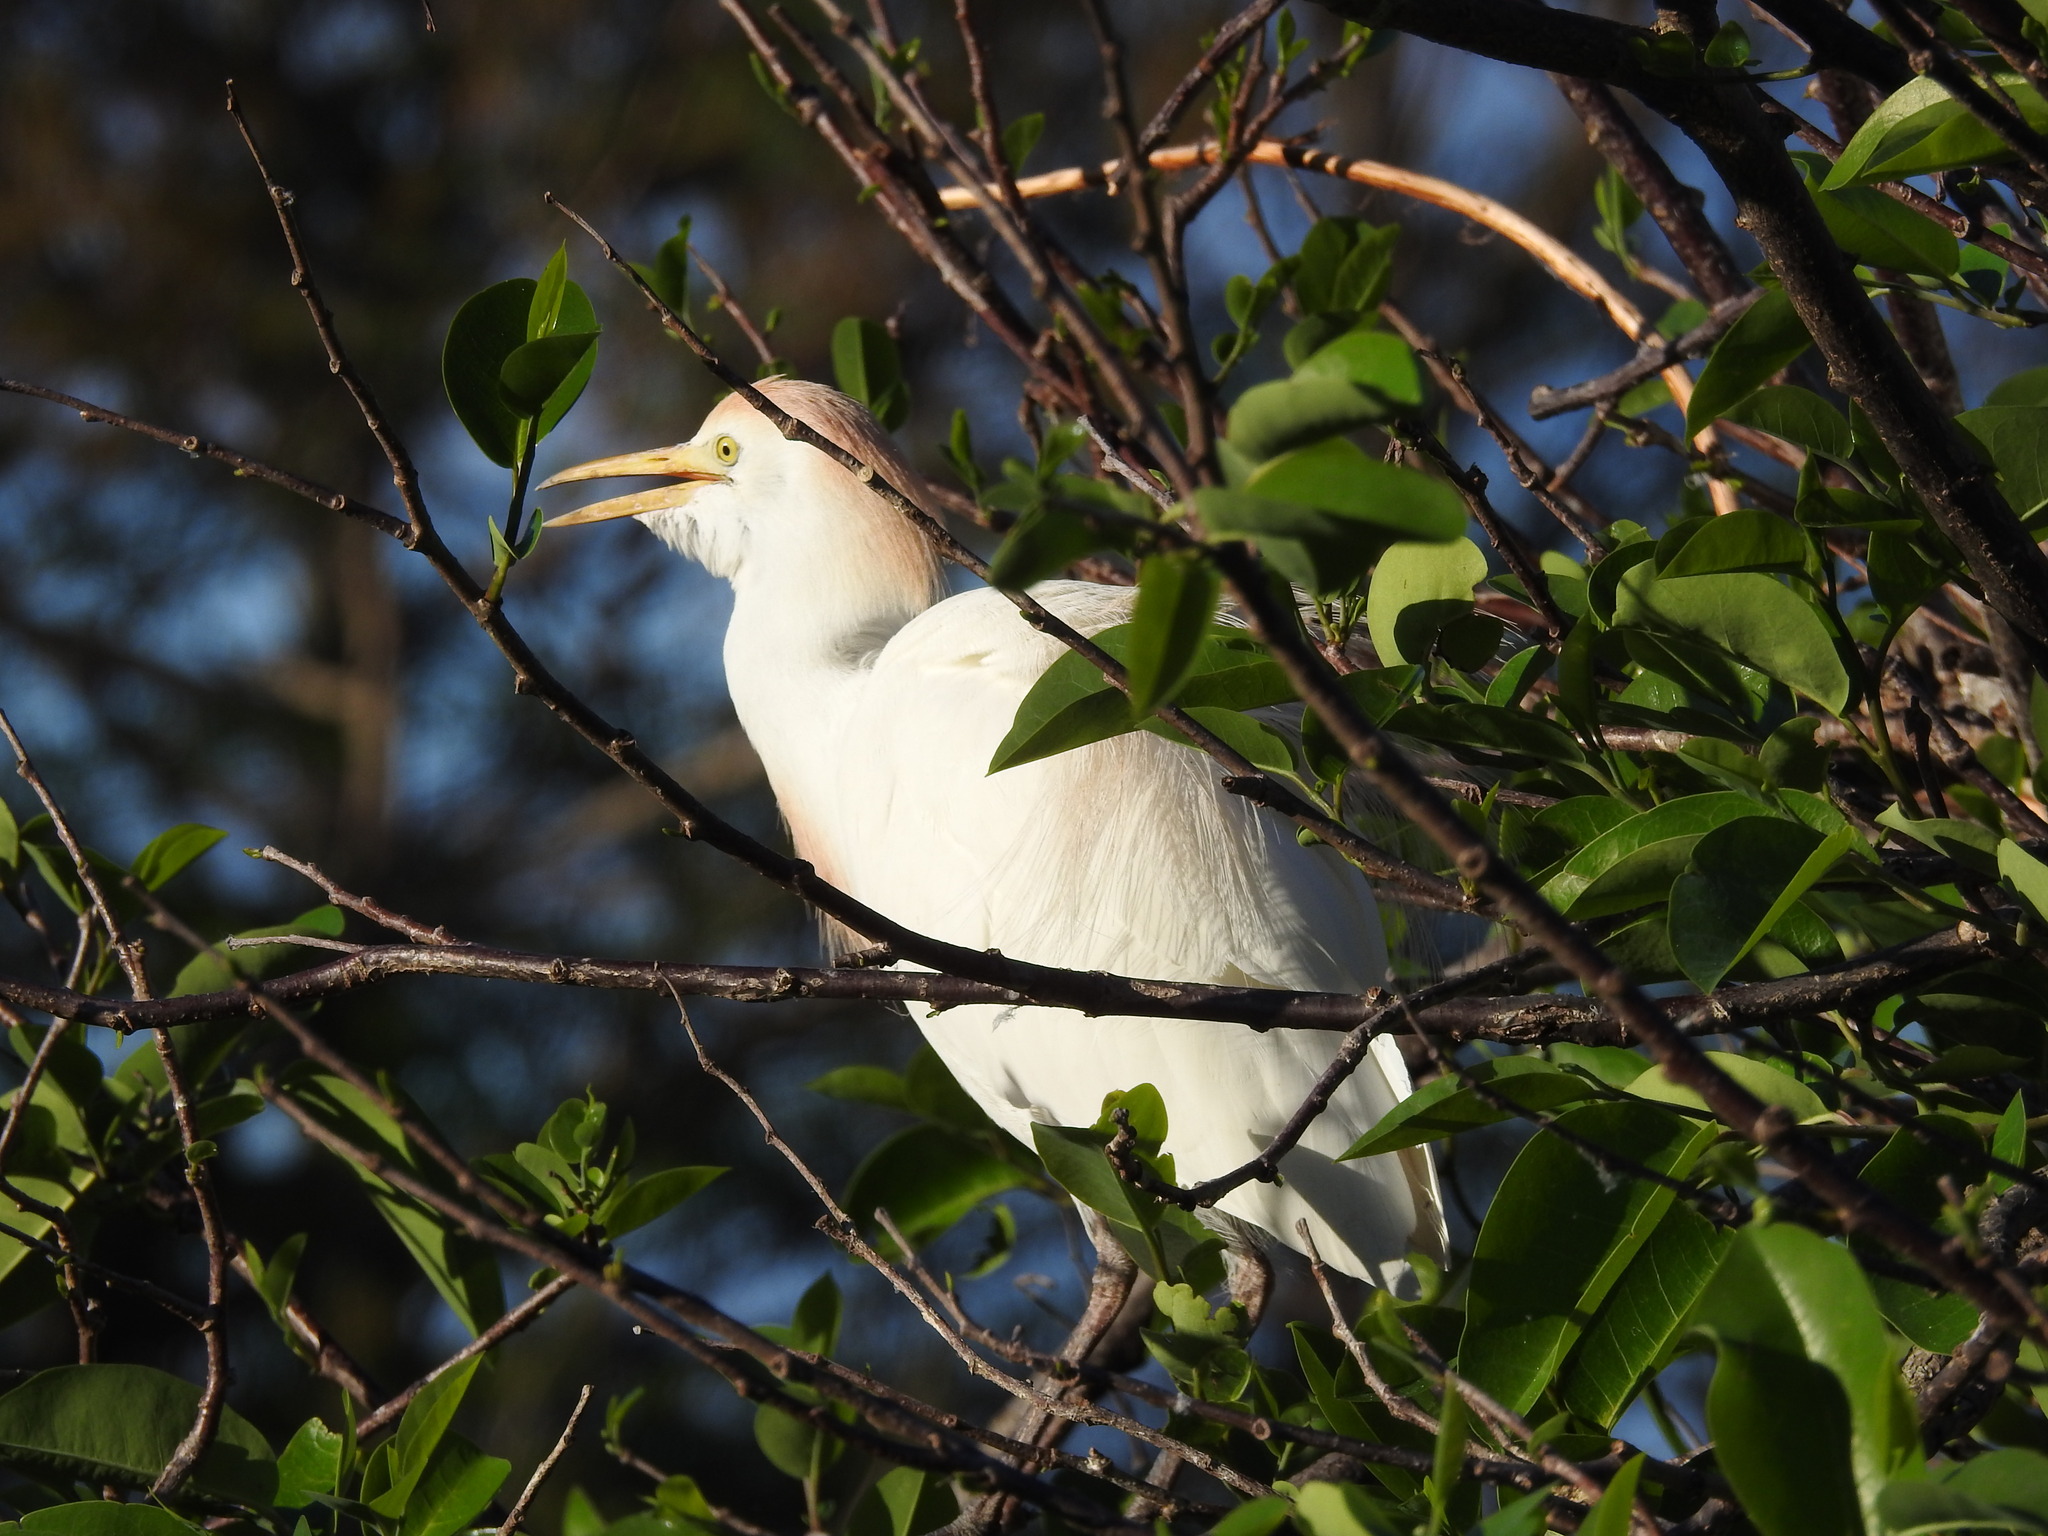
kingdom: Animalia
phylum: Chordata
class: Aves
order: Pelecaniformes
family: Ardeidae
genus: Bubulcus
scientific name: Bubulcus ibis
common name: Cattle egret
